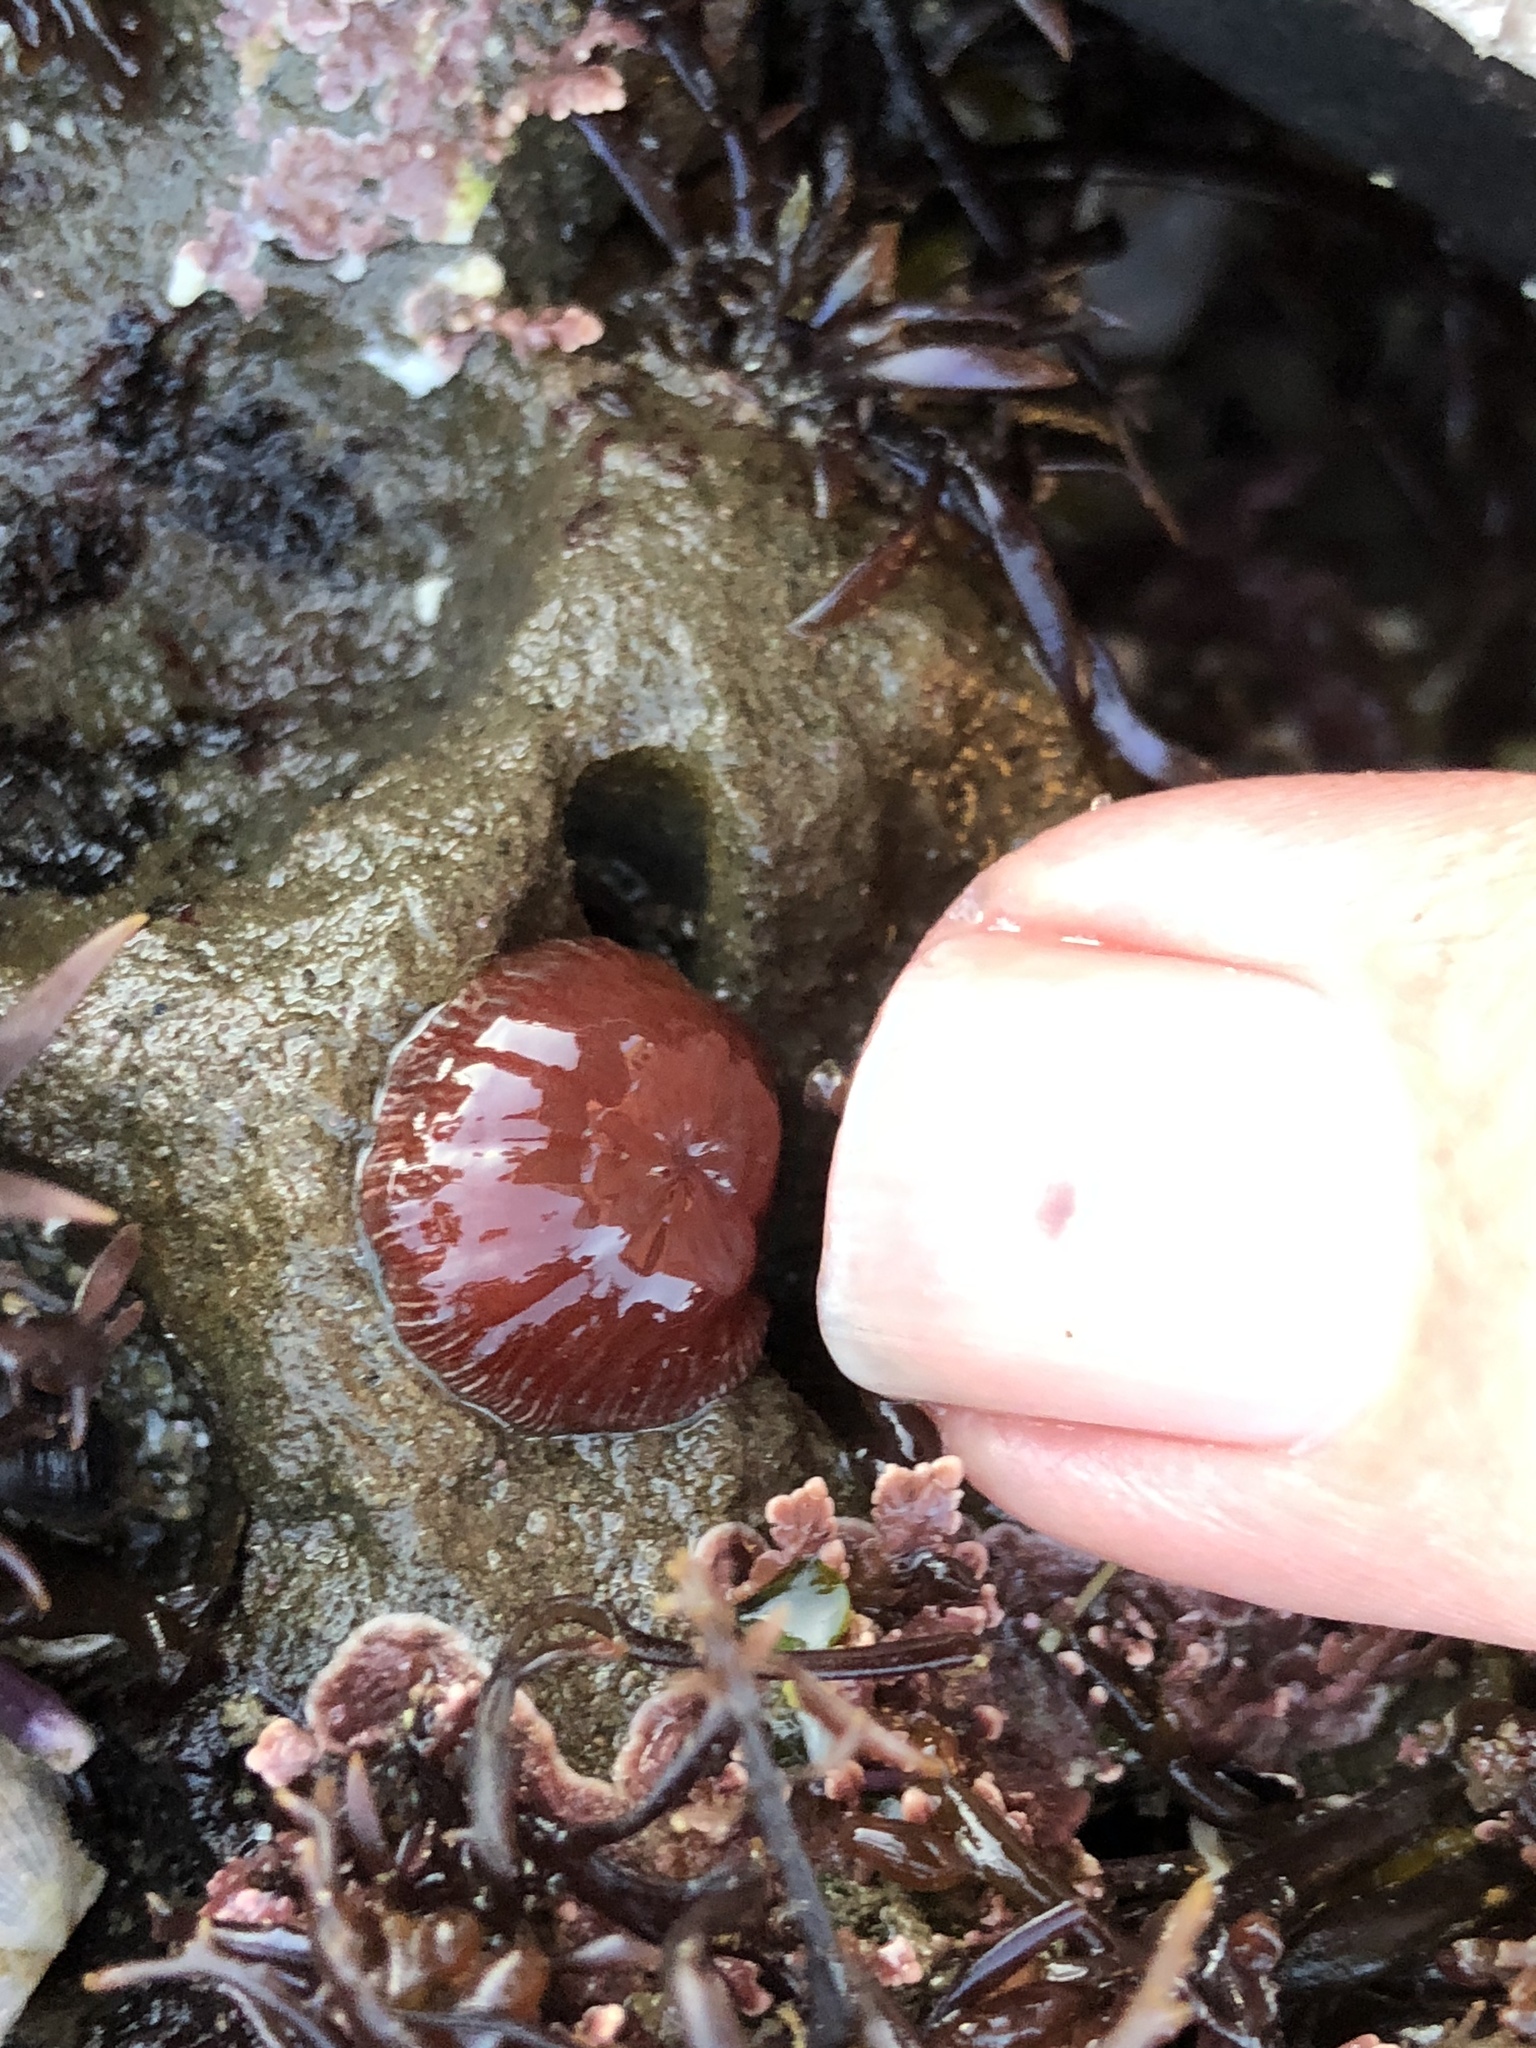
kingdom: Animalia
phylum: Cnidaria
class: Anthozoa
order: Actiniaria
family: Actiniidae
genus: Epiactis
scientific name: Epiactis prolifera
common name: Brooding anemone
